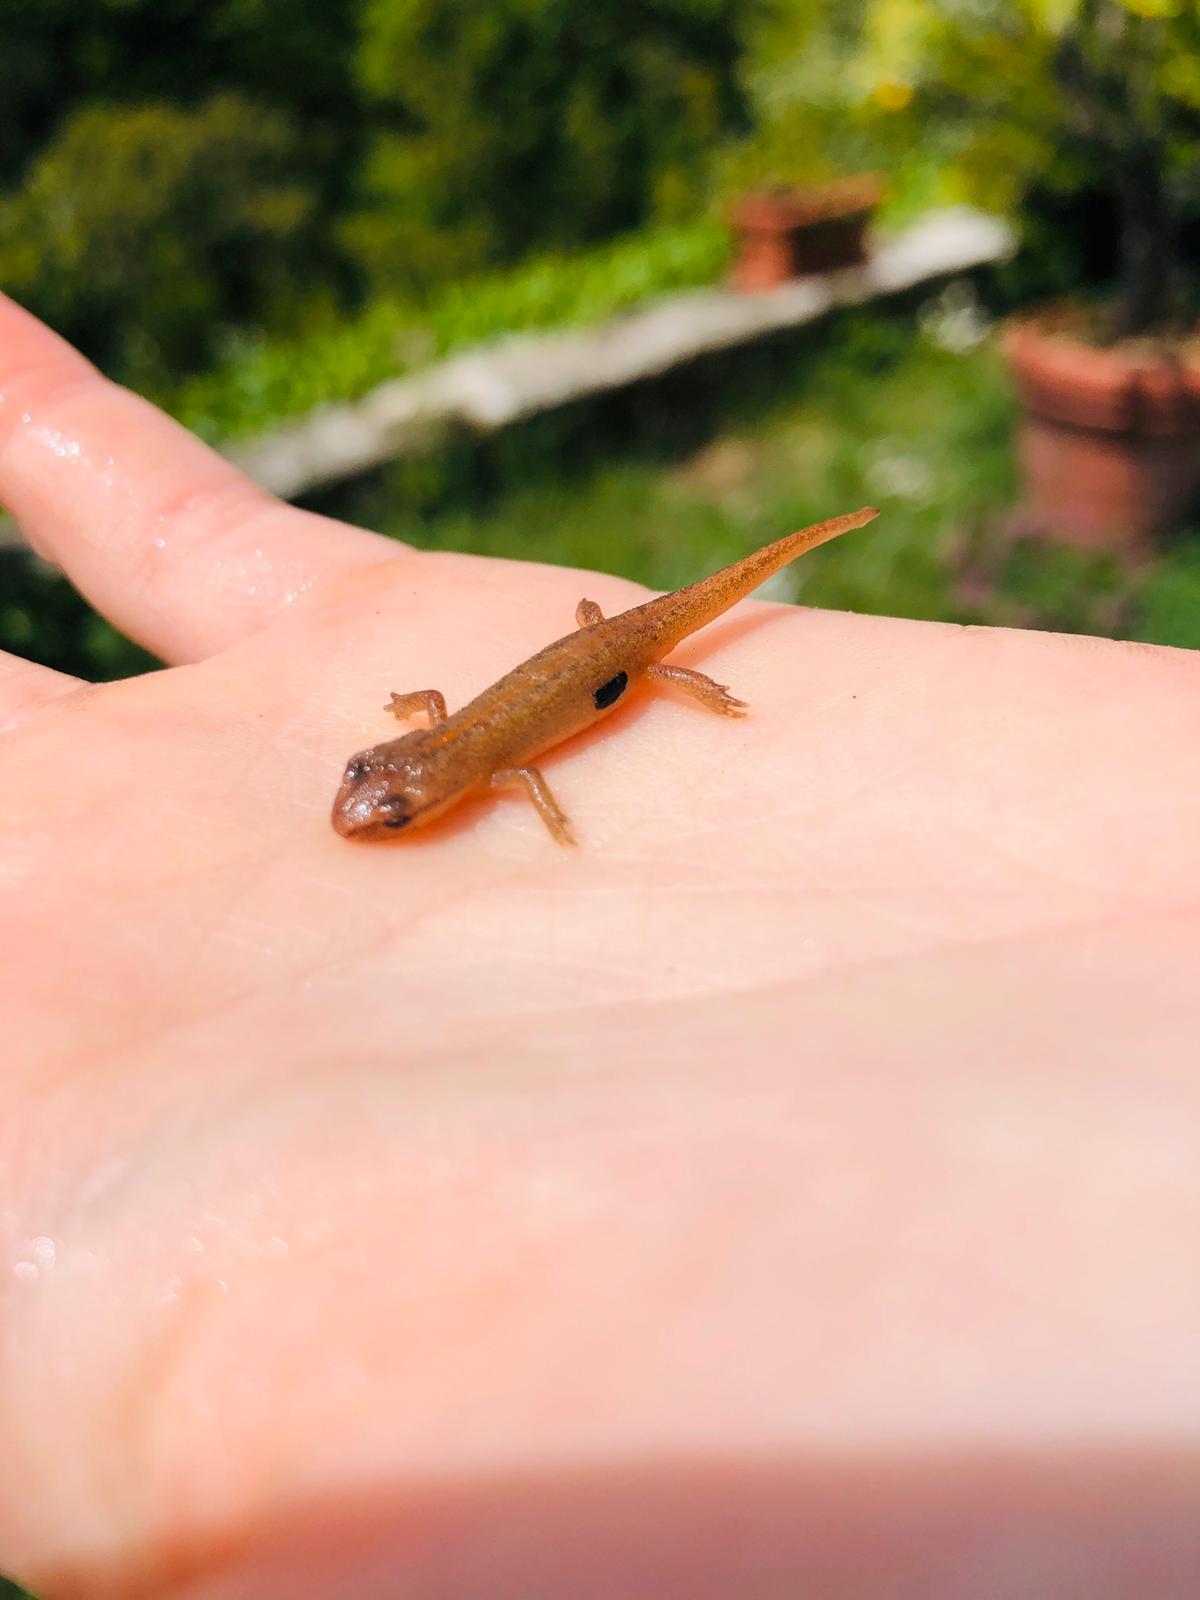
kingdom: Animalia
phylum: Chordata
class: Amphibia
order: Caudata
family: Salamandridae
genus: Lissotriton
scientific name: Lissotriton vulgaris
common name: Smooth newt
